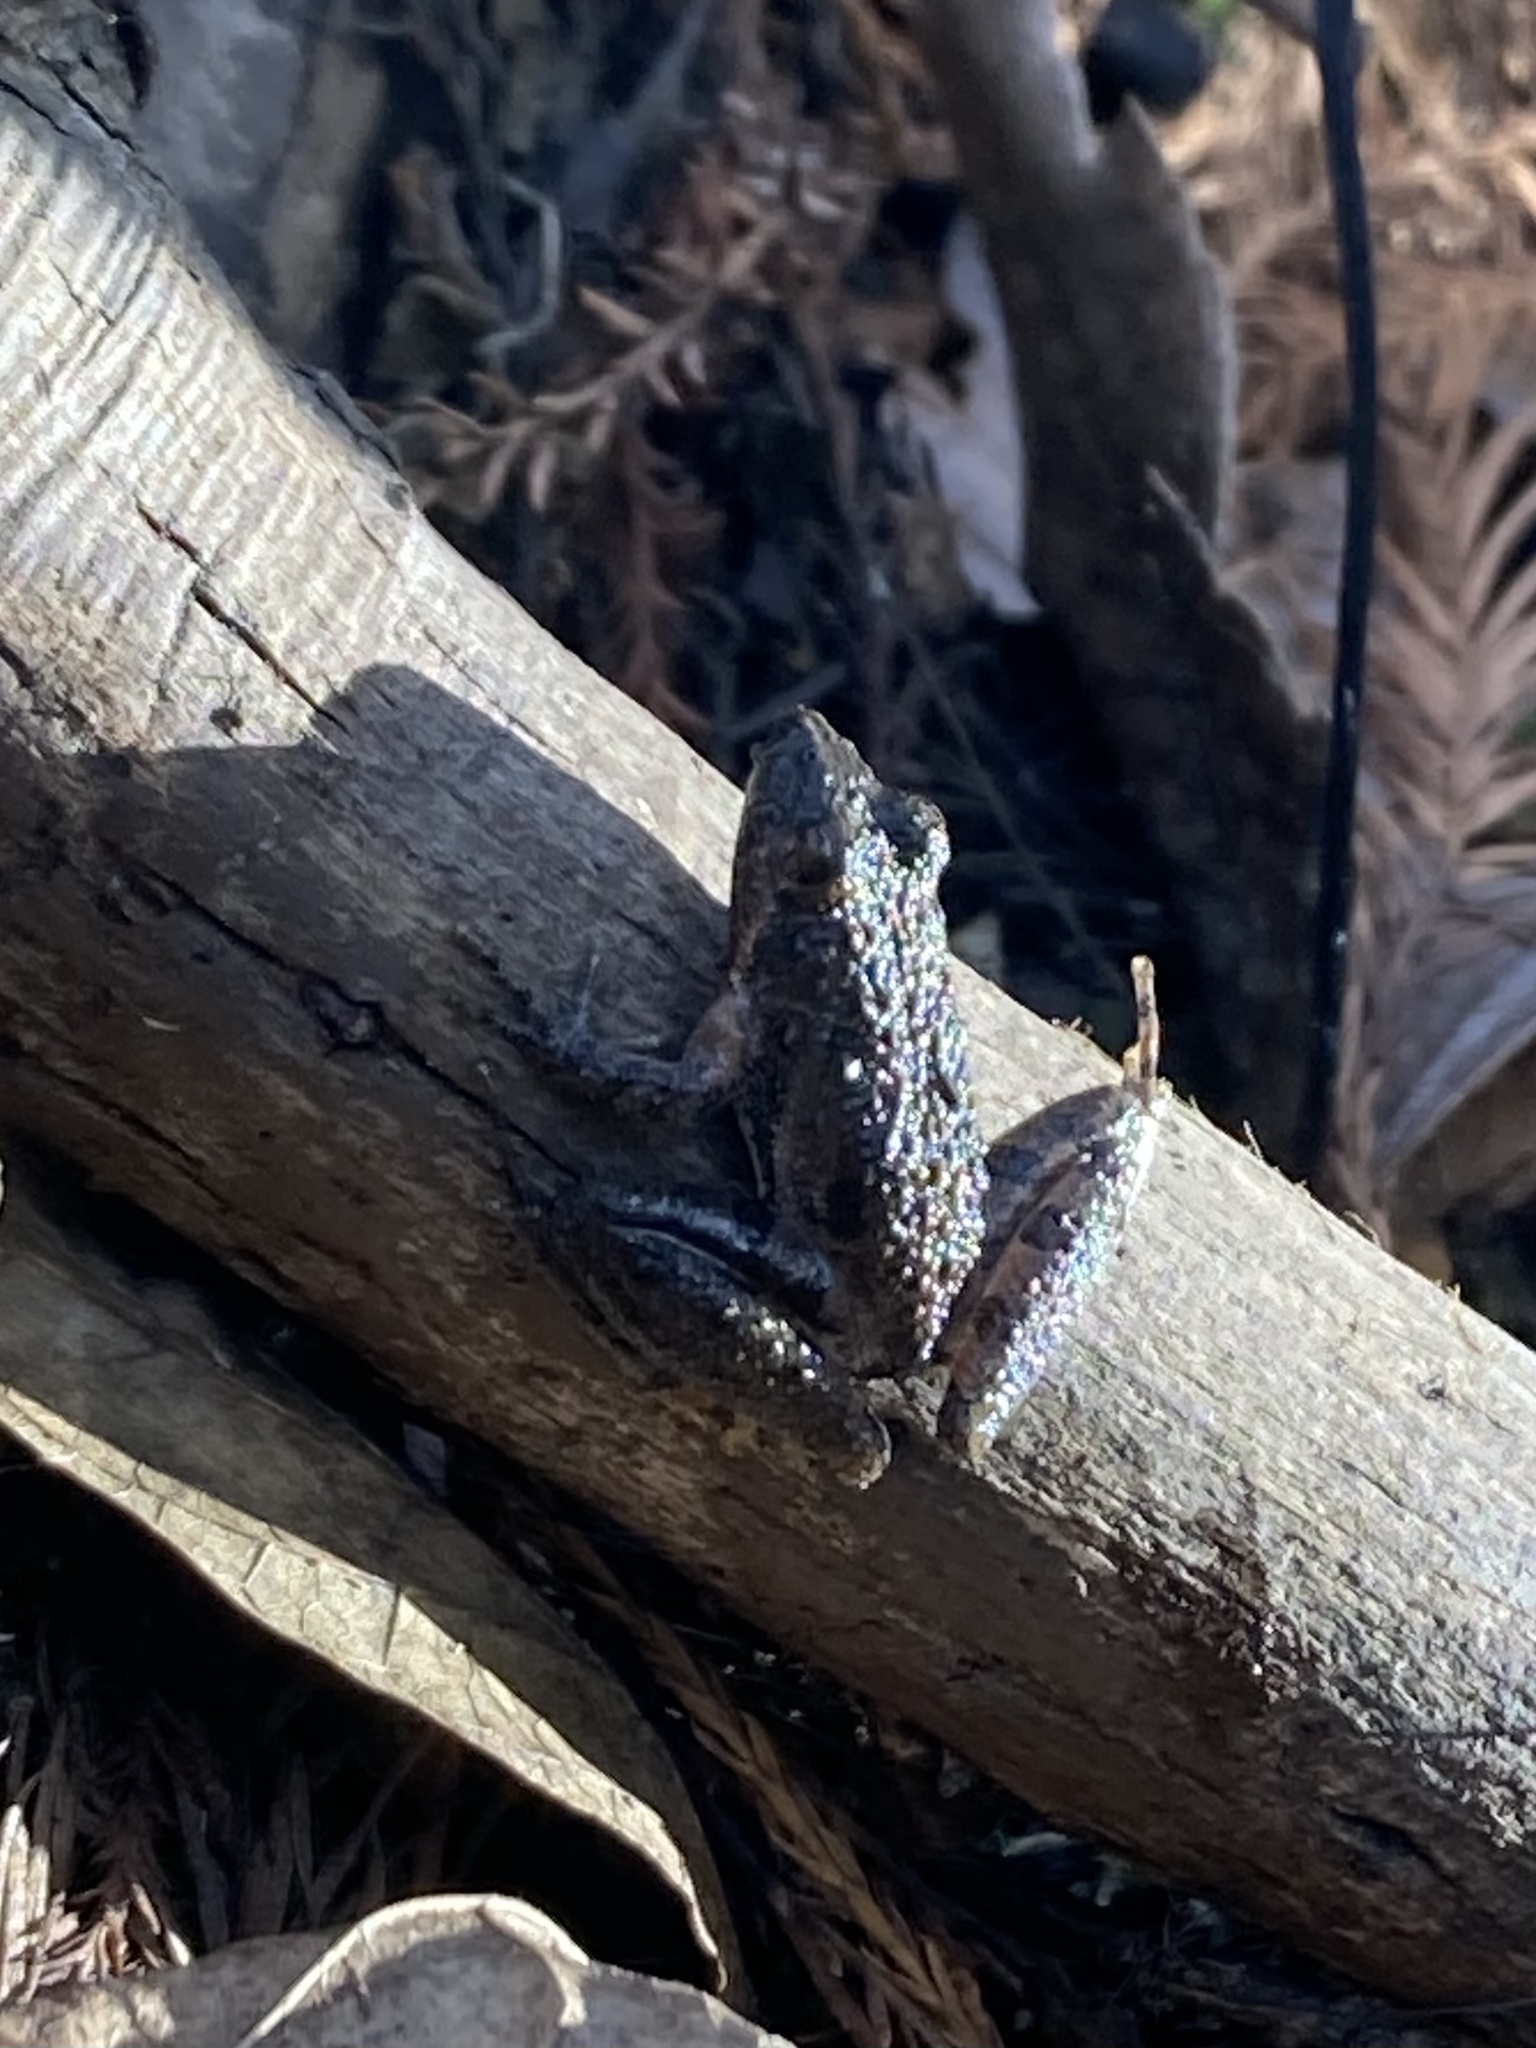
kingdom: Animalia
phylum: Chordata
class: Amphibia
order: Anura
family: Hylidae
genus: Acris
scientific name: Acris gryllus
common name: Southern cricket frog
